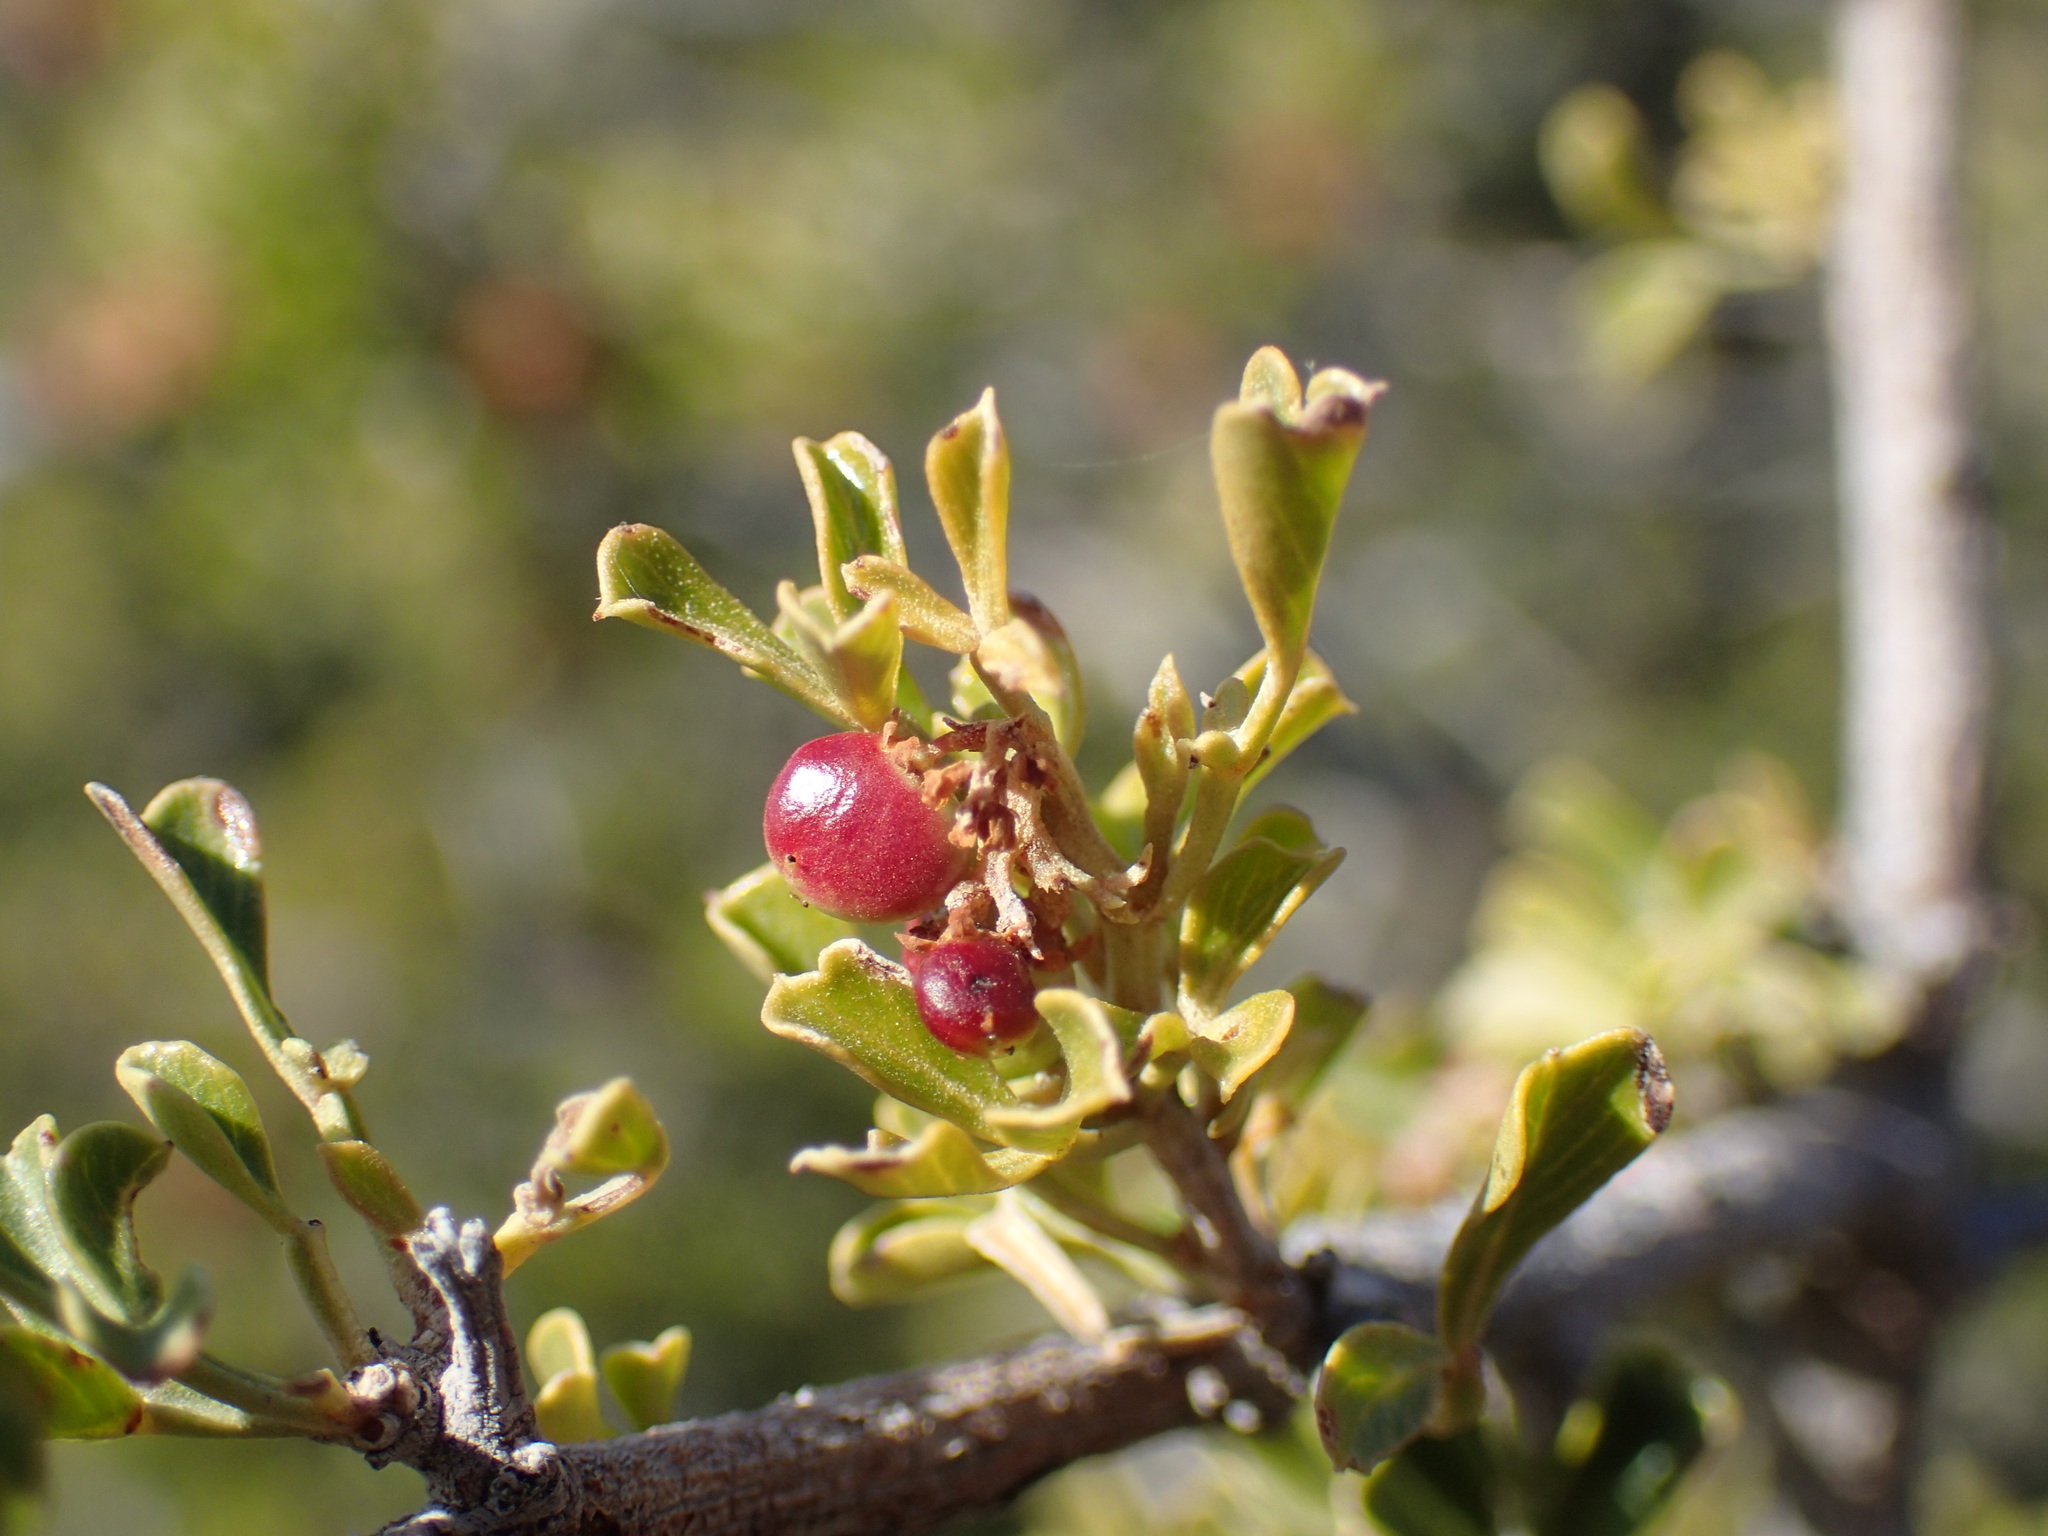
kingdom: Plantae
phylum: Tracheophyta
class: Magnoliopsida
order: Sapindales
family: Anacardiaceae
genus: Searsia
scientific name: Searsia burchellii
